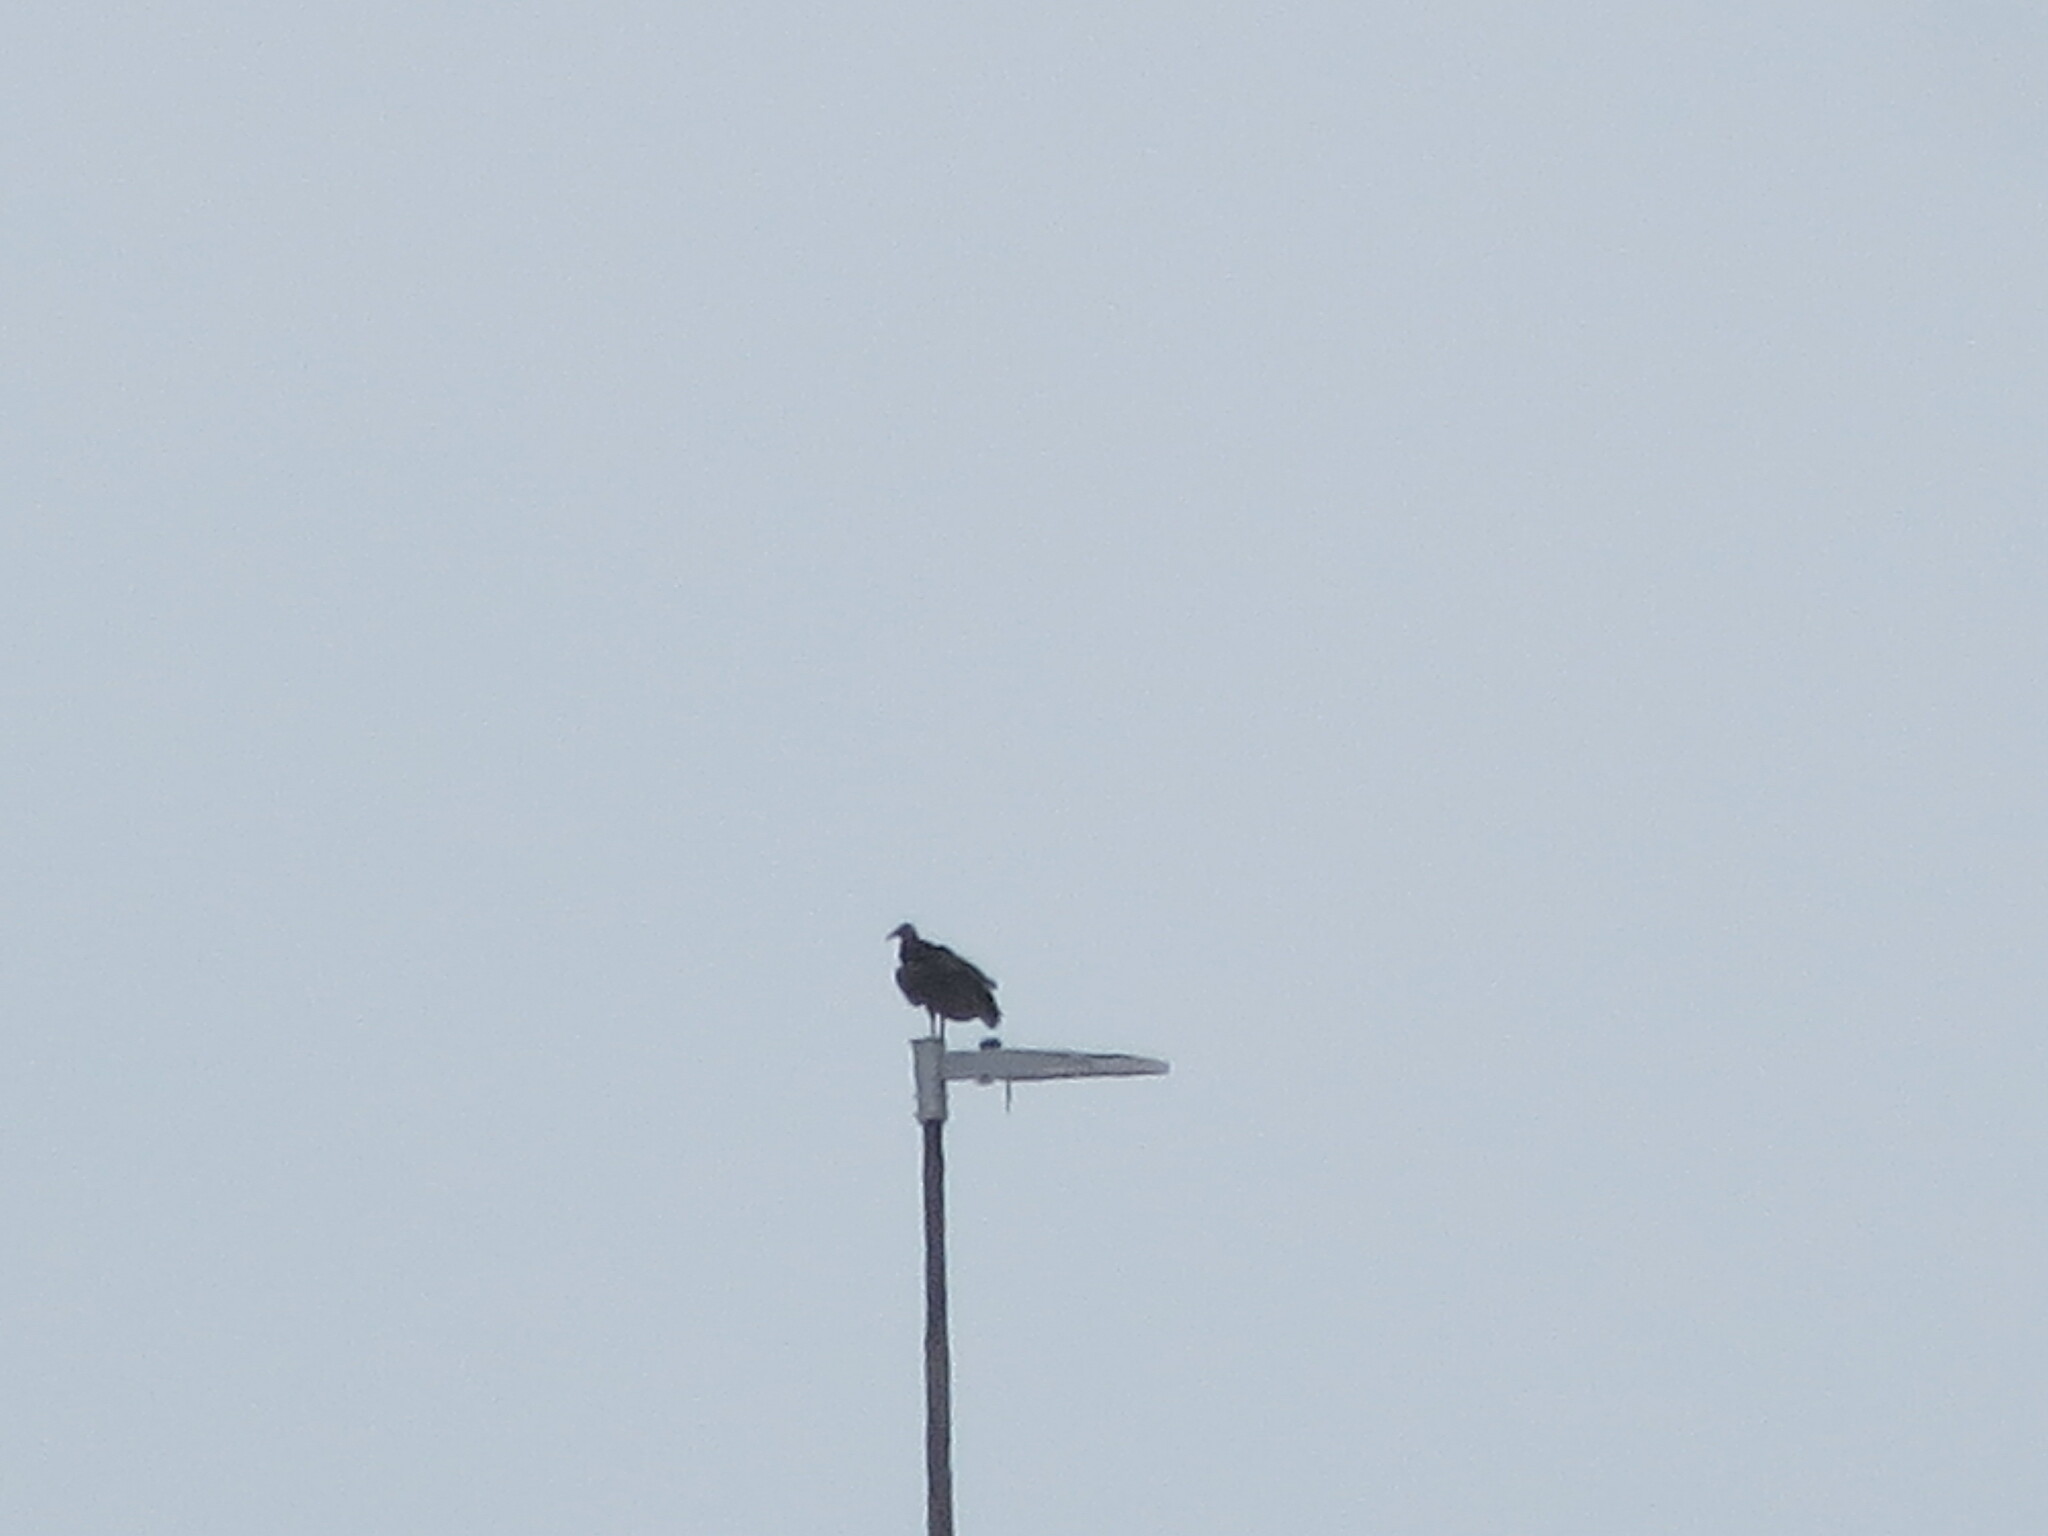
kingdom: Animalia
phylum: Chordata
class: Aves
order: Accipitriformes
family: Cathartidae
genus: Coragyps
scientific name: Coragyps atratus
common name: Black vulture
